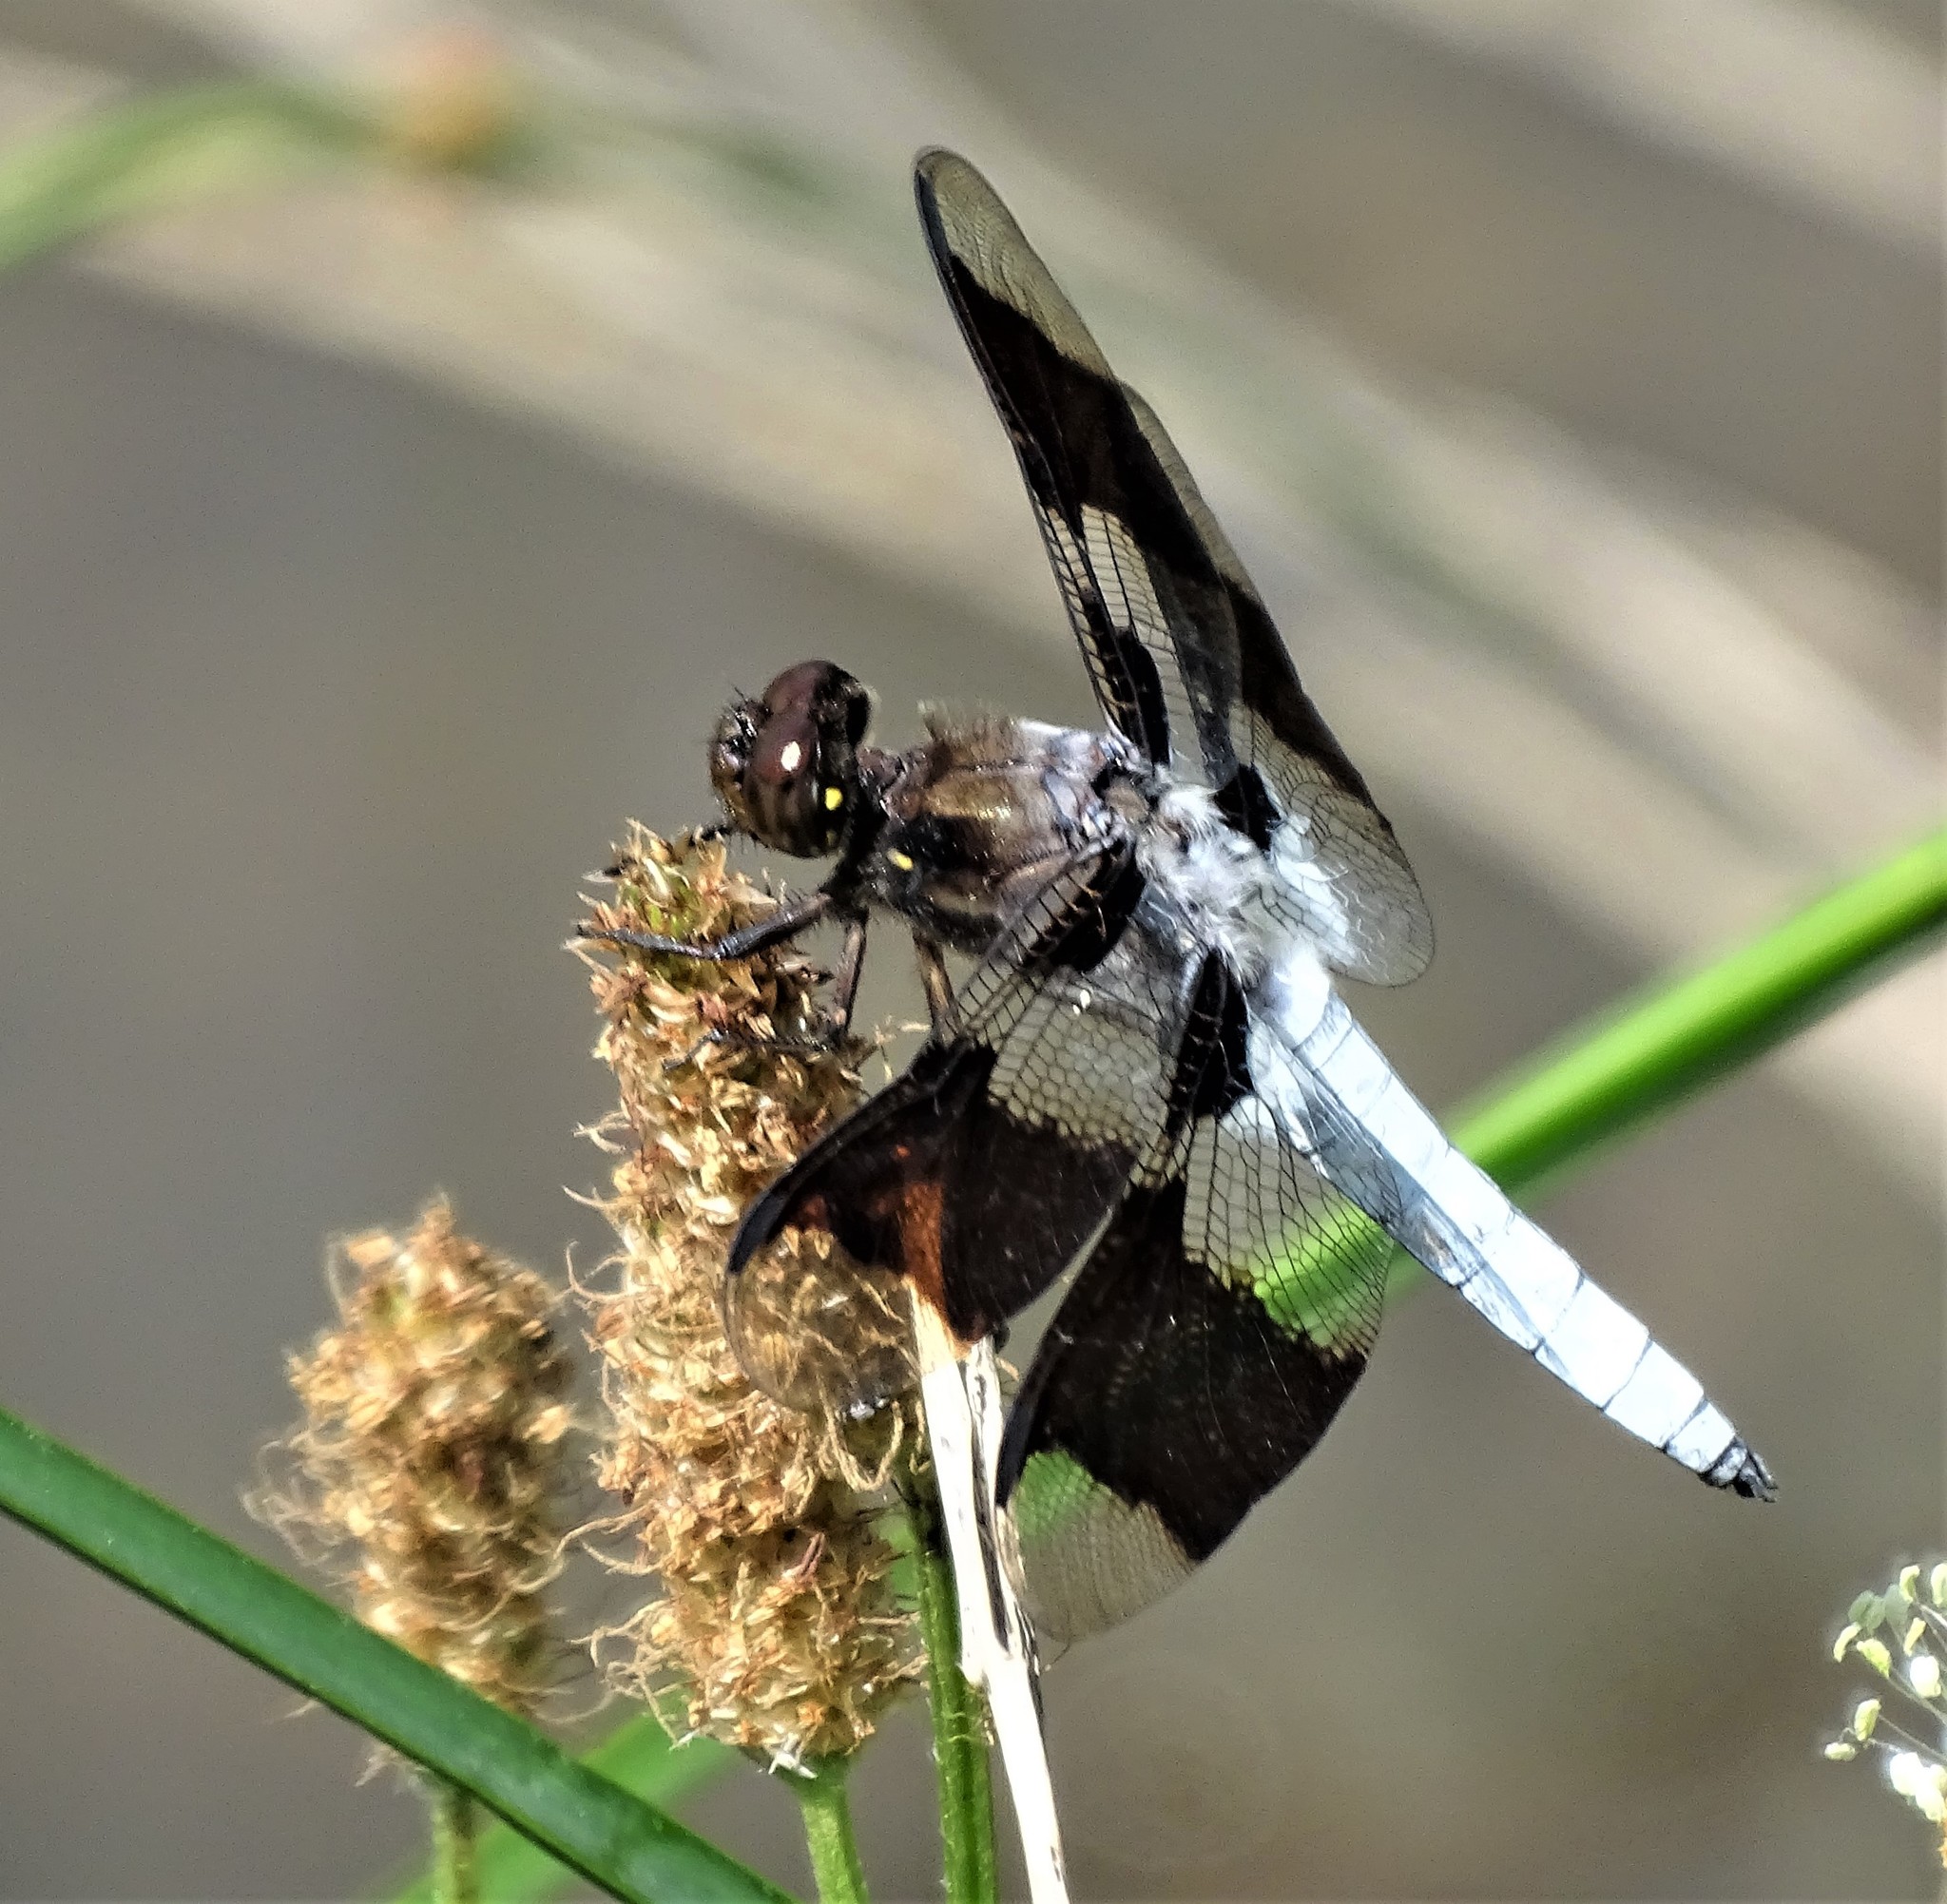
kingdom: Animalia
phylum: Arthropoda
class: Insecta
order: Odonata
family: Libellulidae
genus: Plathemis
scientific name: Plathemis lydia
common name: Common whitetail
